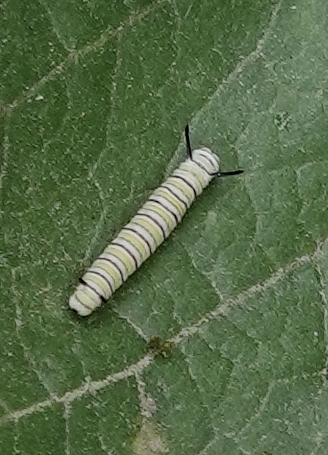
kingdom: Animalia
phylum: Arthropoda
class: Insecta
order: Lepidoptera
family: Nymphalidae
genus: Danaus
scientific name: Danaus plexippus
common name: Monarch
